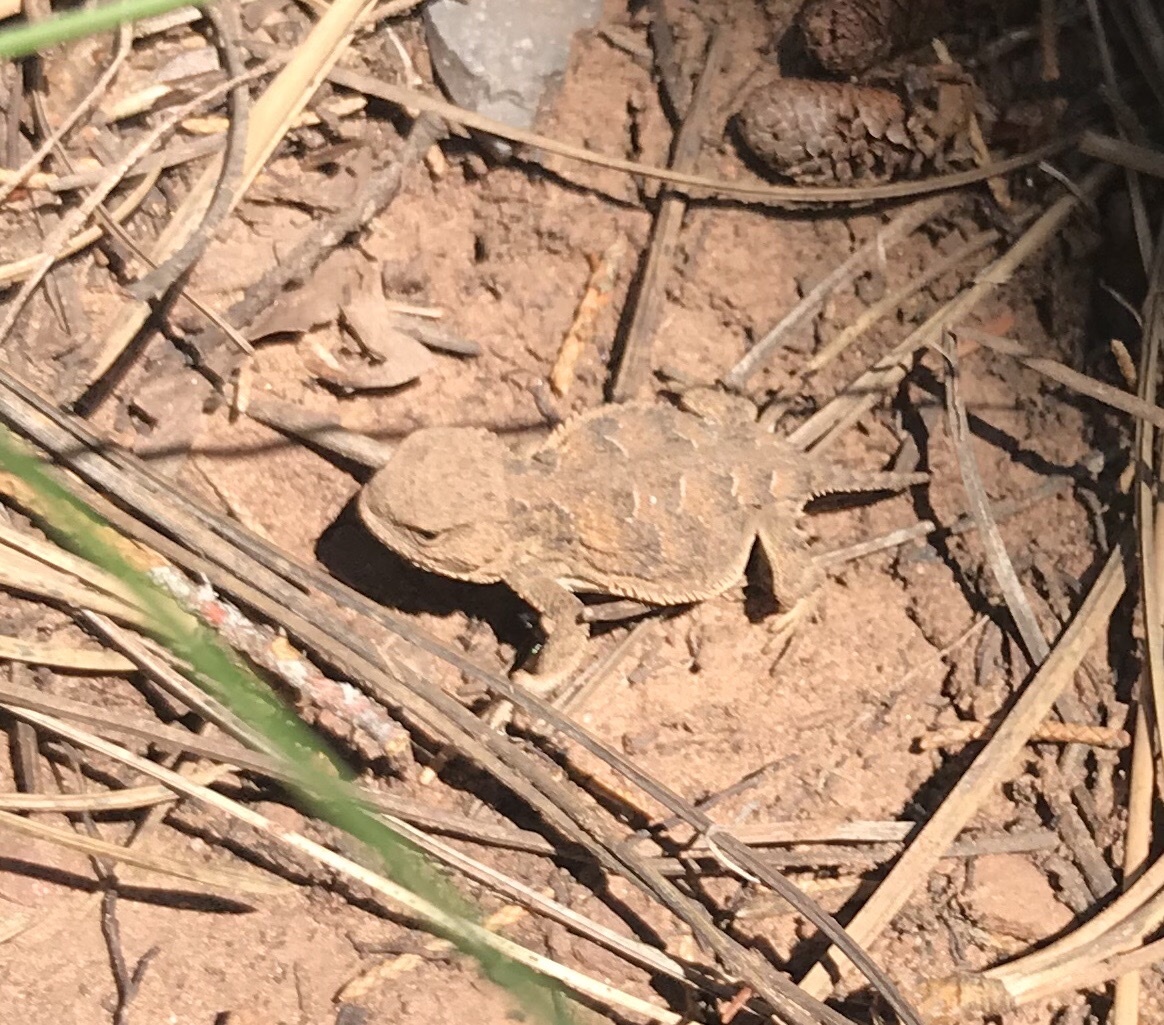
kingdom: Animalia
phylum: Chordata
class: Squamata
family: Phrynosomatidae
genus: Phrynosoma
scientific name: Phrynosoma hernandesi
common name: Greater short-horned lizard
